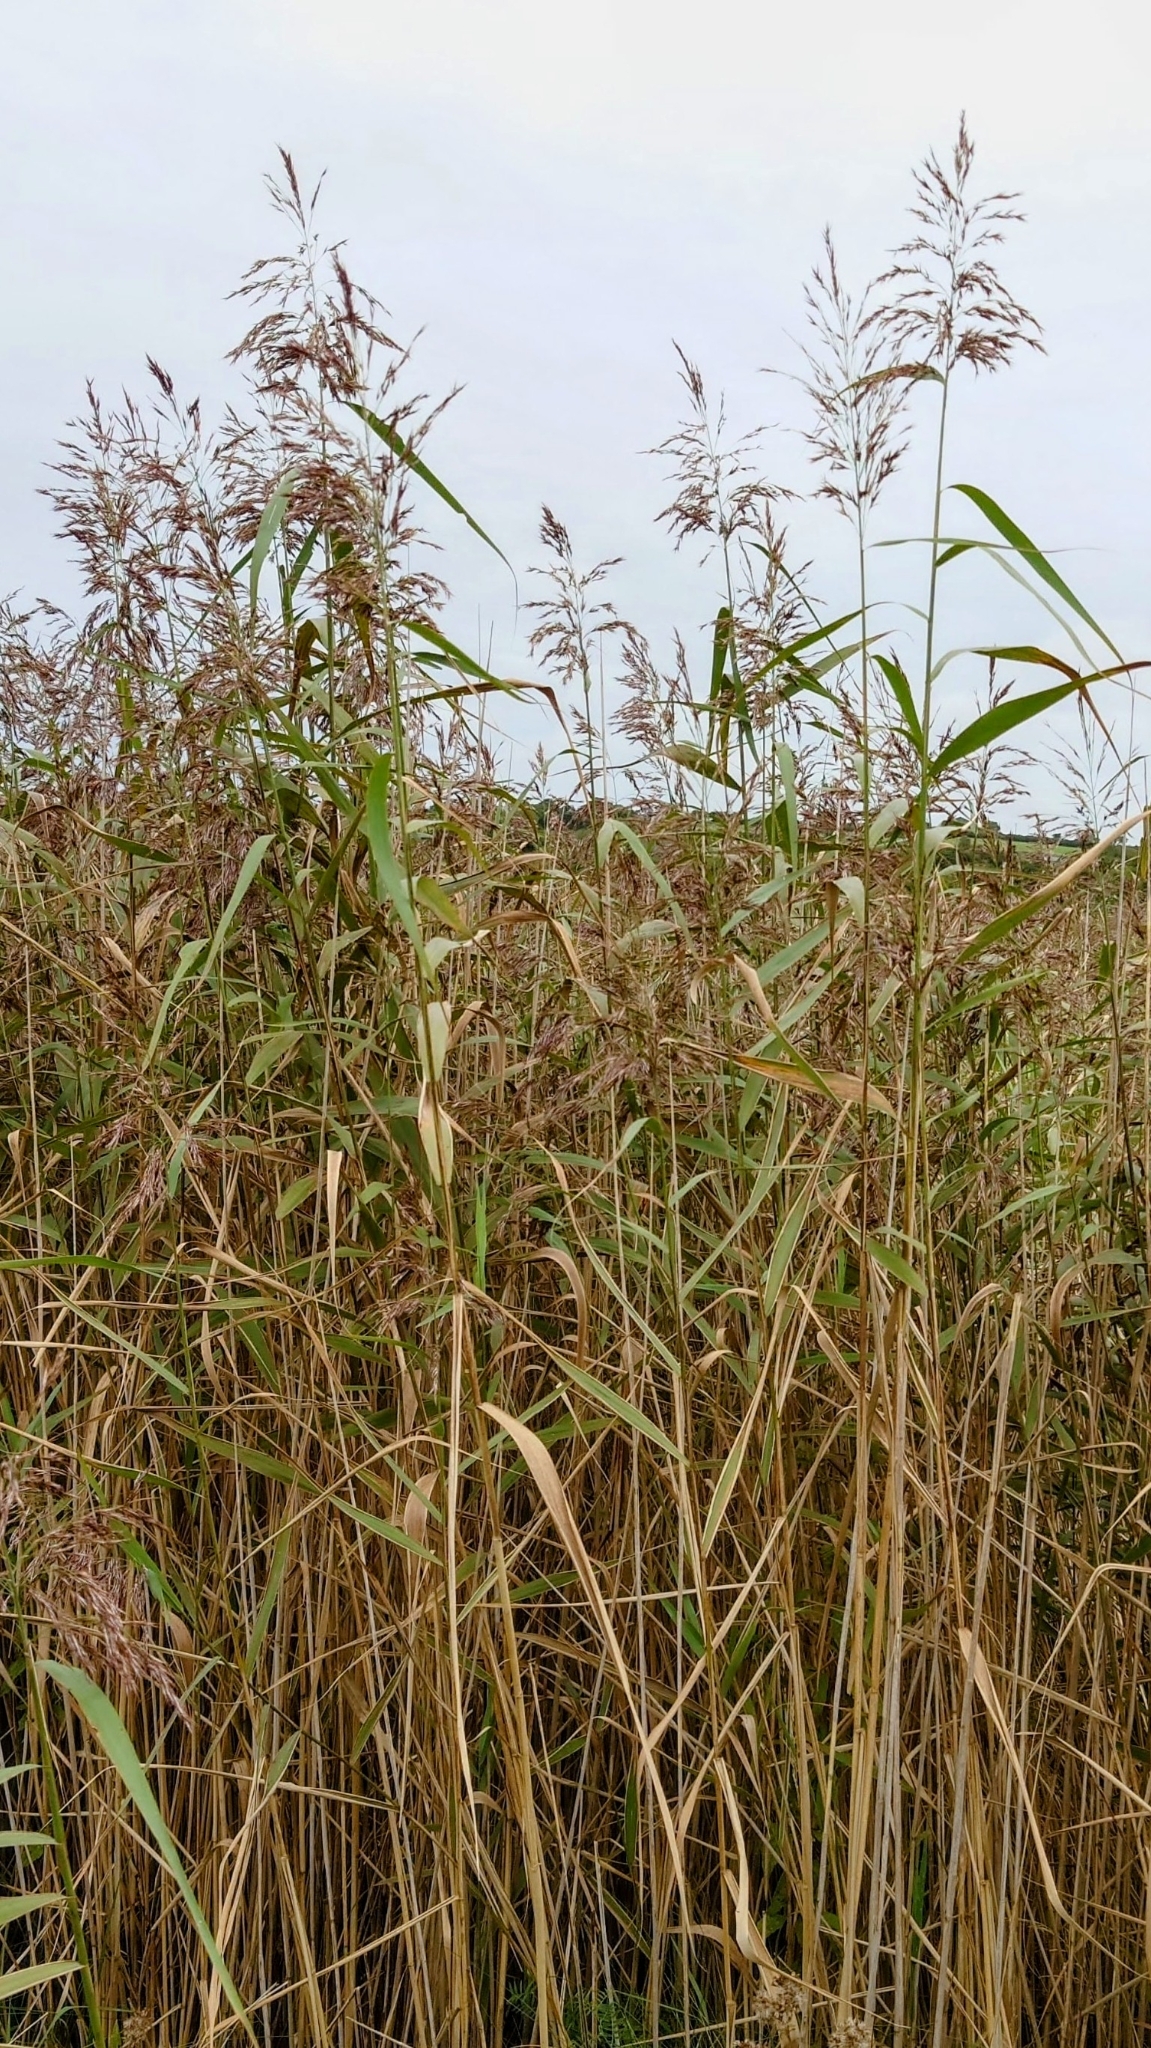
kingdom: Plantae
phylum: Tracheophyta
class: Liliopsida
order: Poales
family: Poaceae
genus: Phragmites
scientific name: Phragmites australis
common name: Common reed
